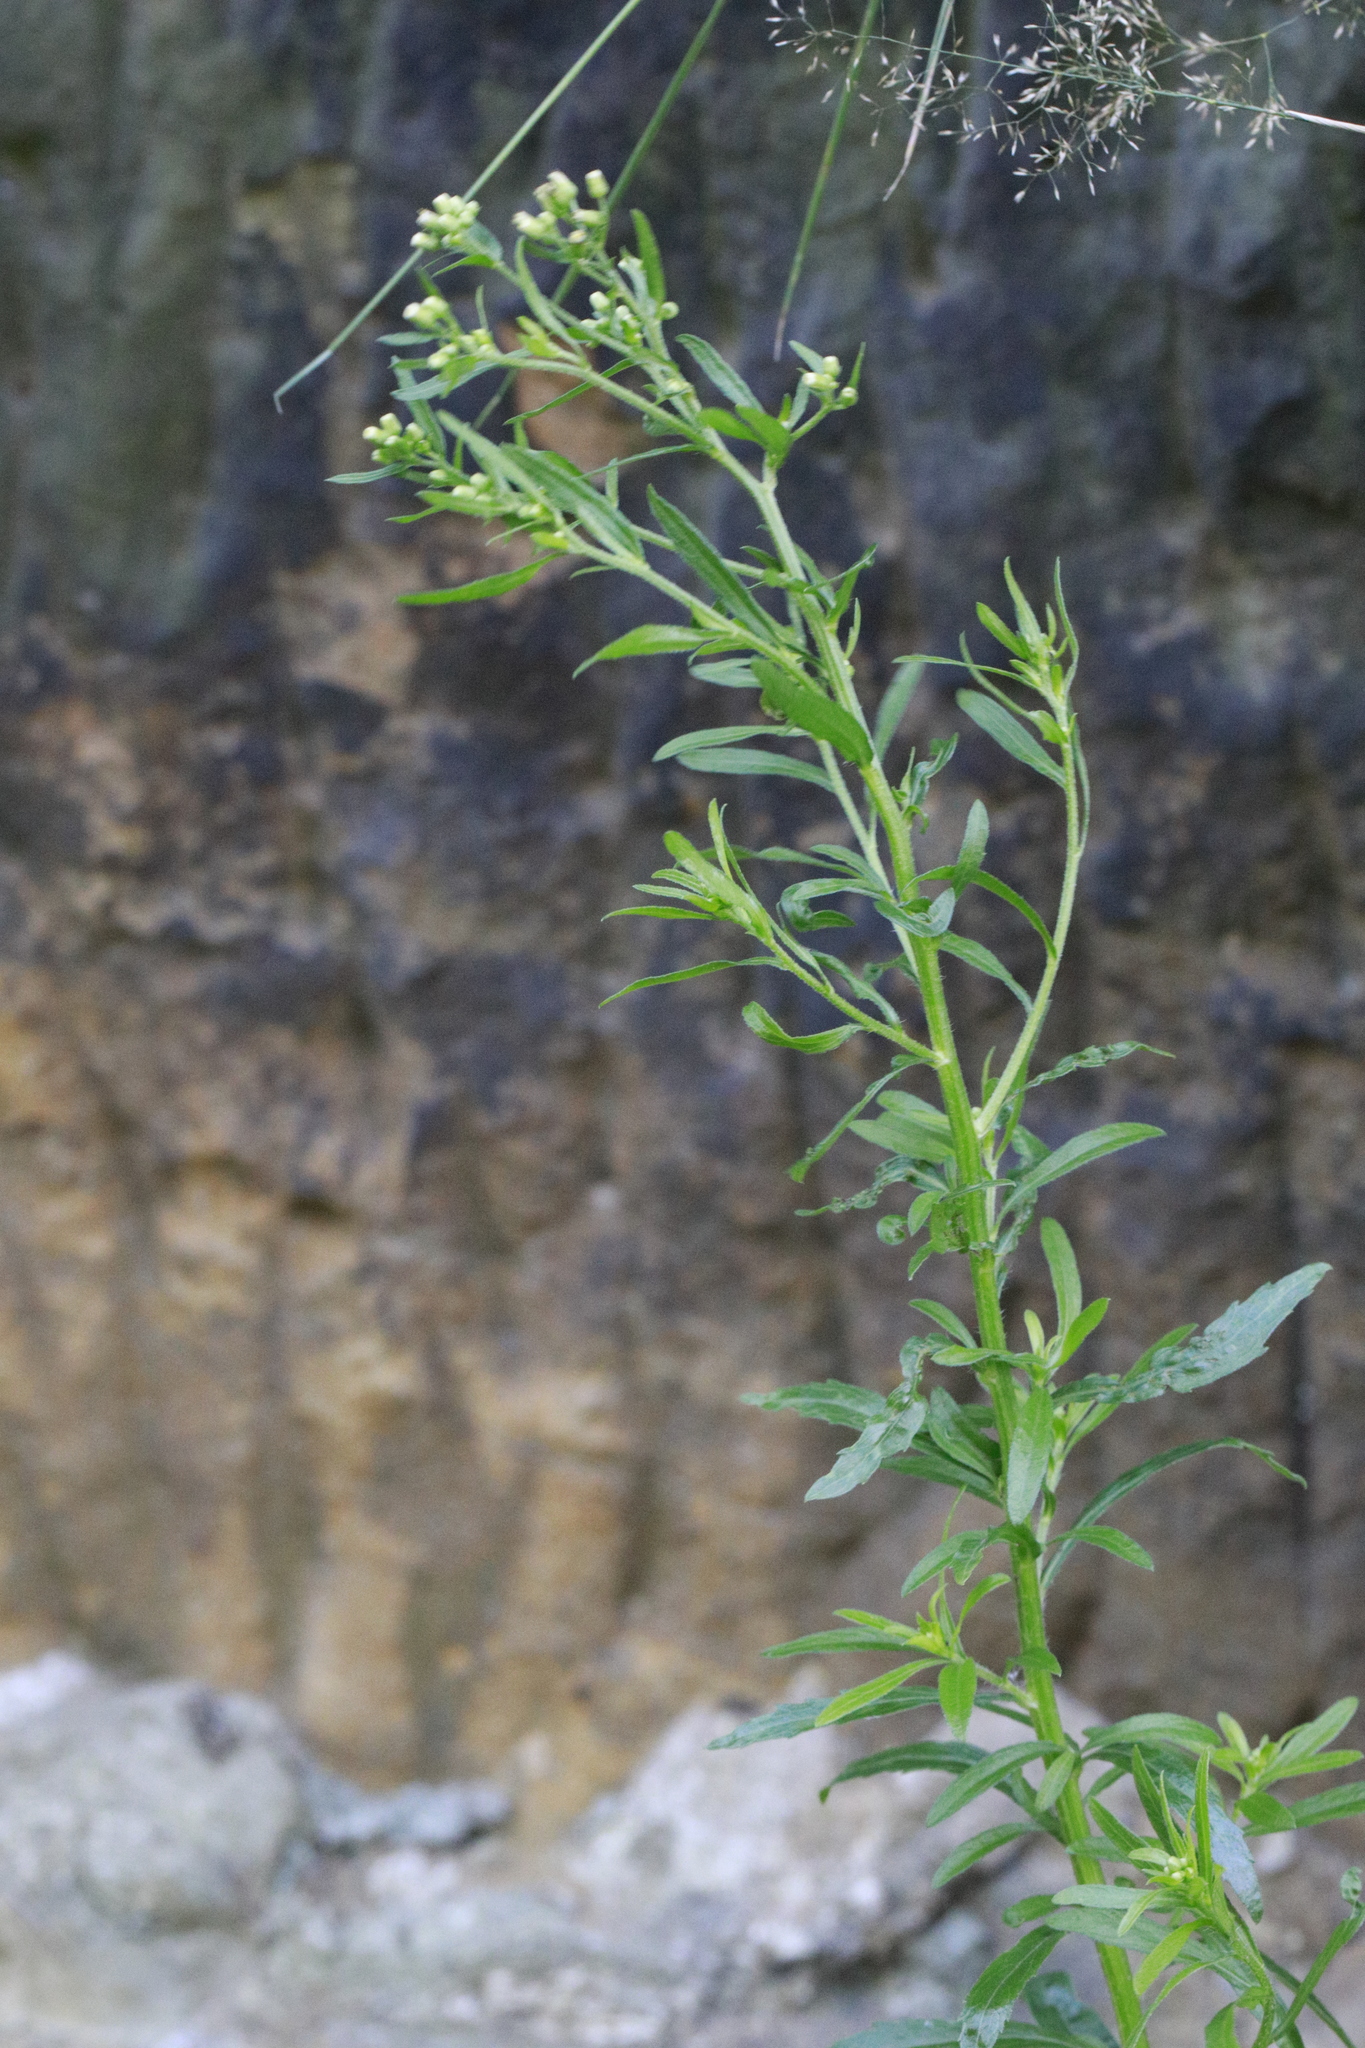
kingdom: Plantae
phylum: Tracheophyta
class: Magnoliopsida
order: Asterales
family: Asteraceae
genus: Erigeron
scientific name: Erigeron canadensis
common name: Canadian fleabane
